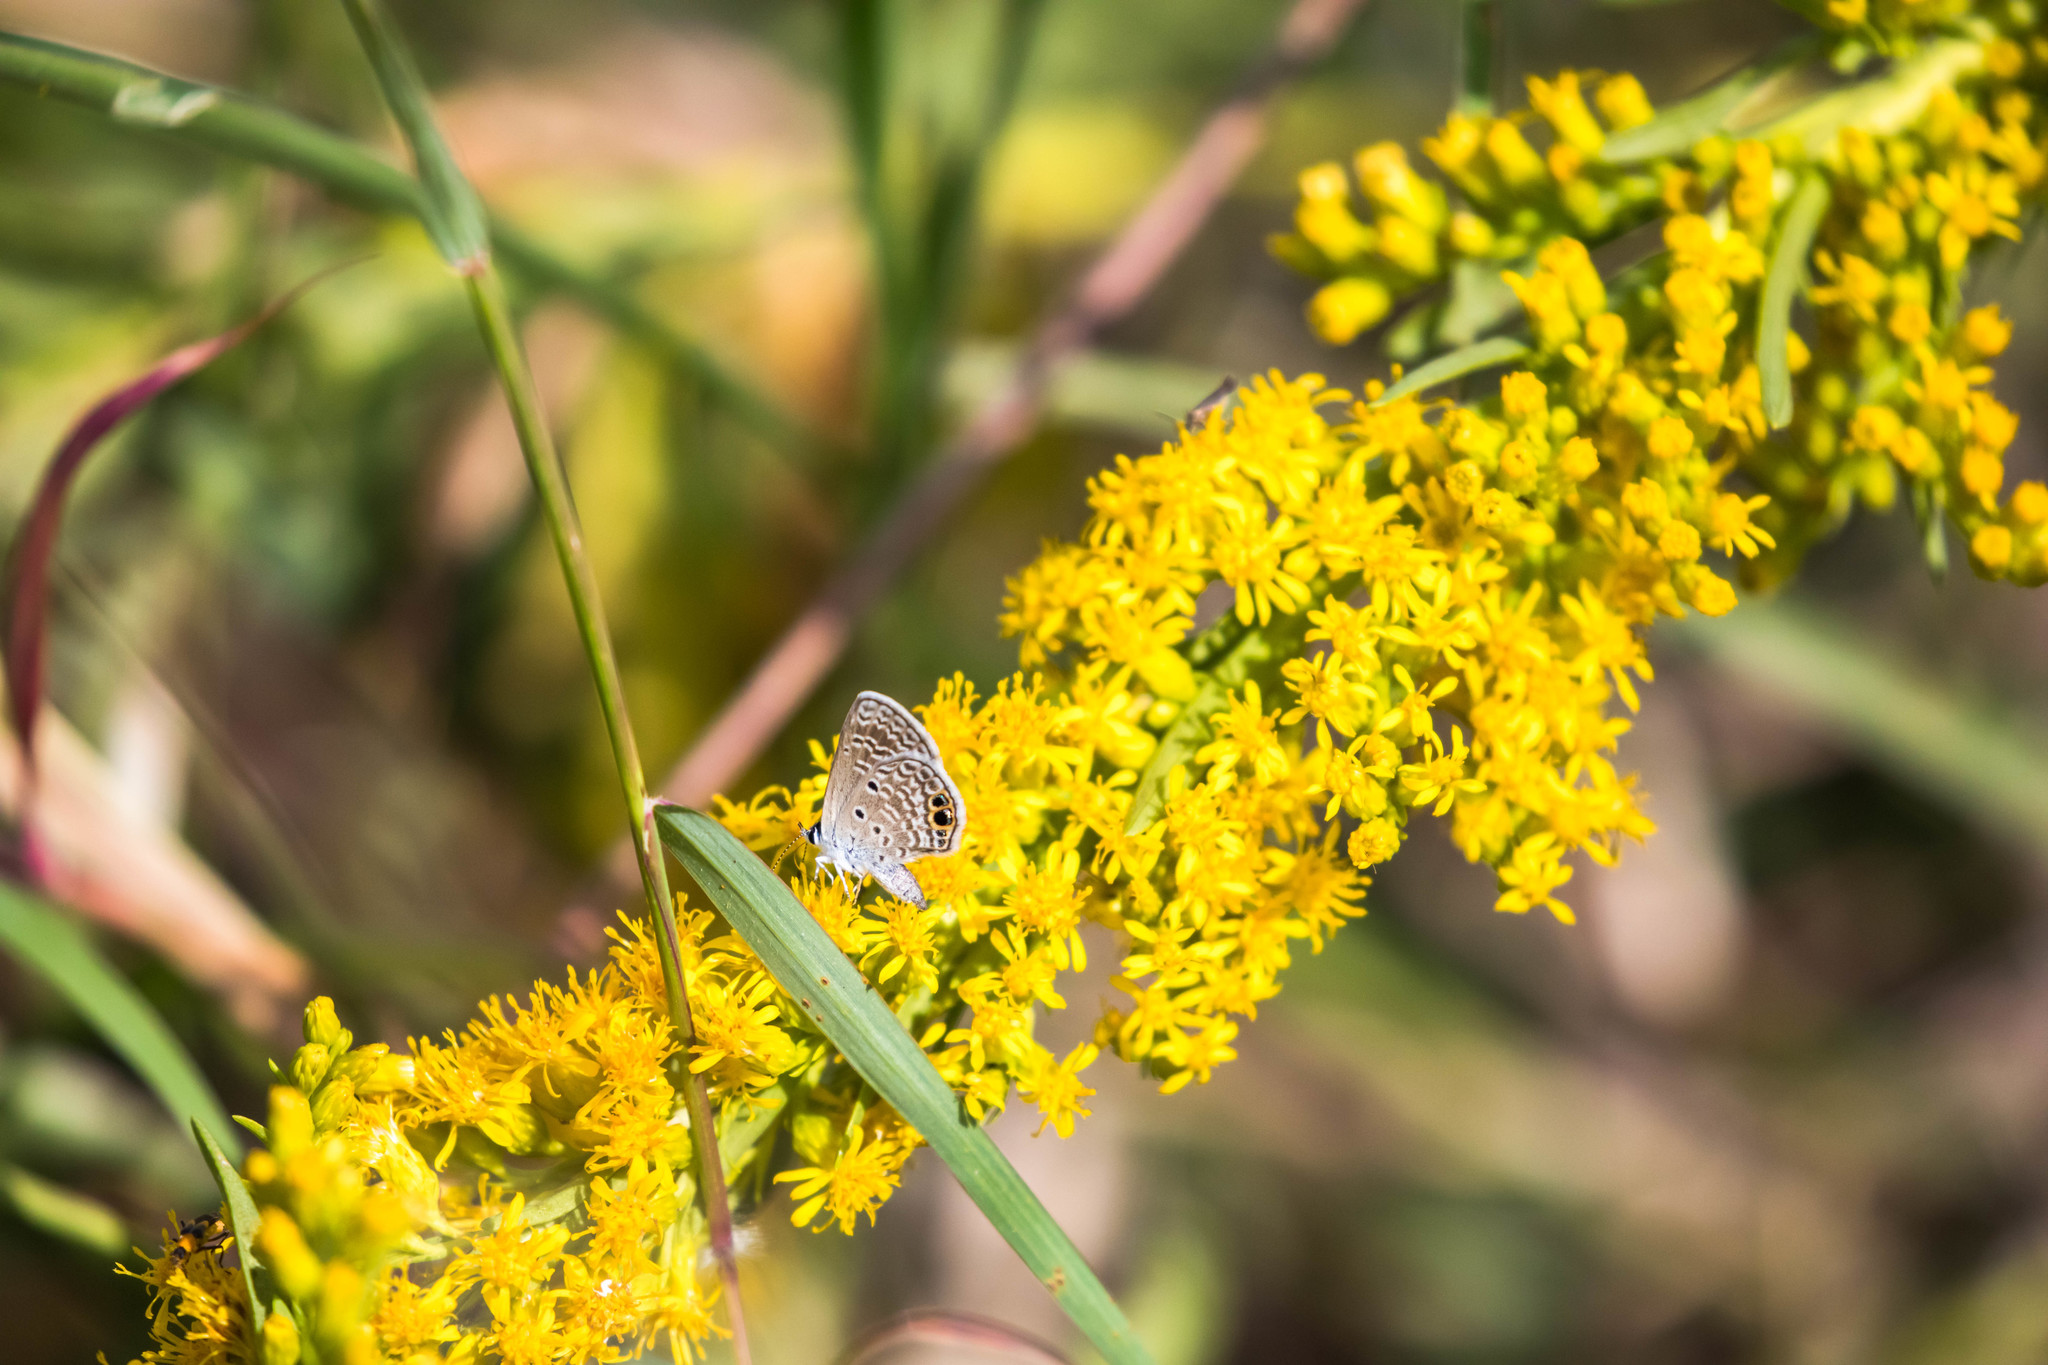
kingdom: Animalia
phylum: Arthropoda
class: Insecta
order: Lepidoptera
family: Lycaenidae
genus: Hemiargus
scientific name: Hemiargus ceraunus
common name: Ceraunus blue
